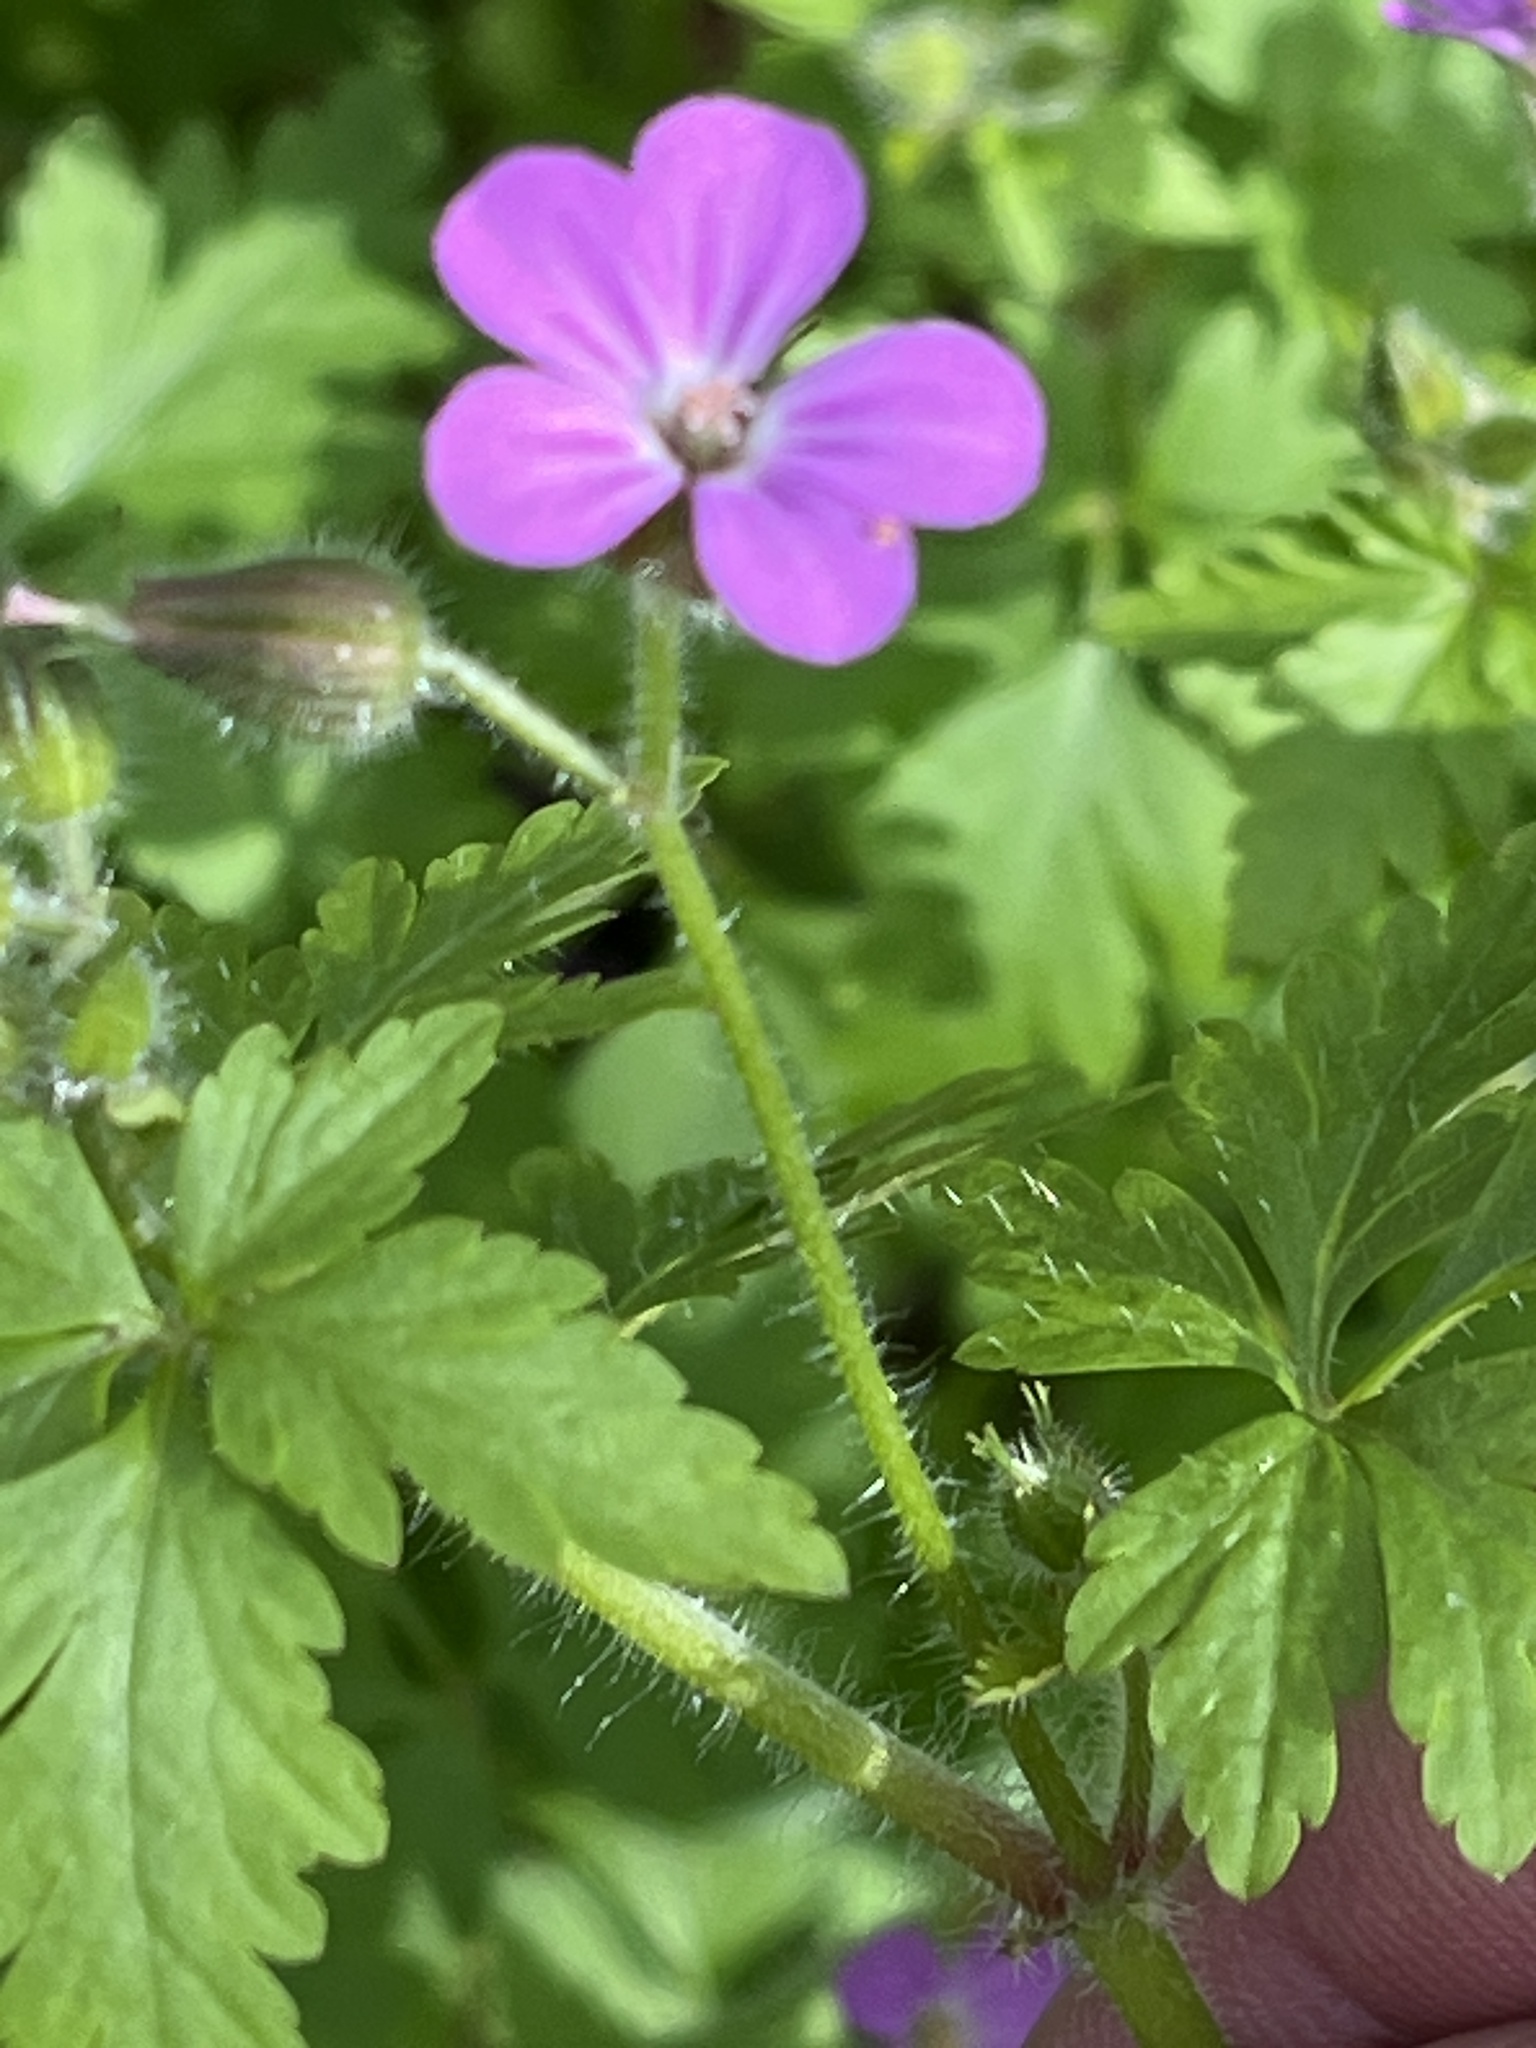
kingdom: Plantae
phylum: Tracheophyta
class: Magnoliopsida
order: Geraniales
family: Geraniaceae
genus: Geranium
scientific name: Geranium robertianum
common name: Herb-robert
